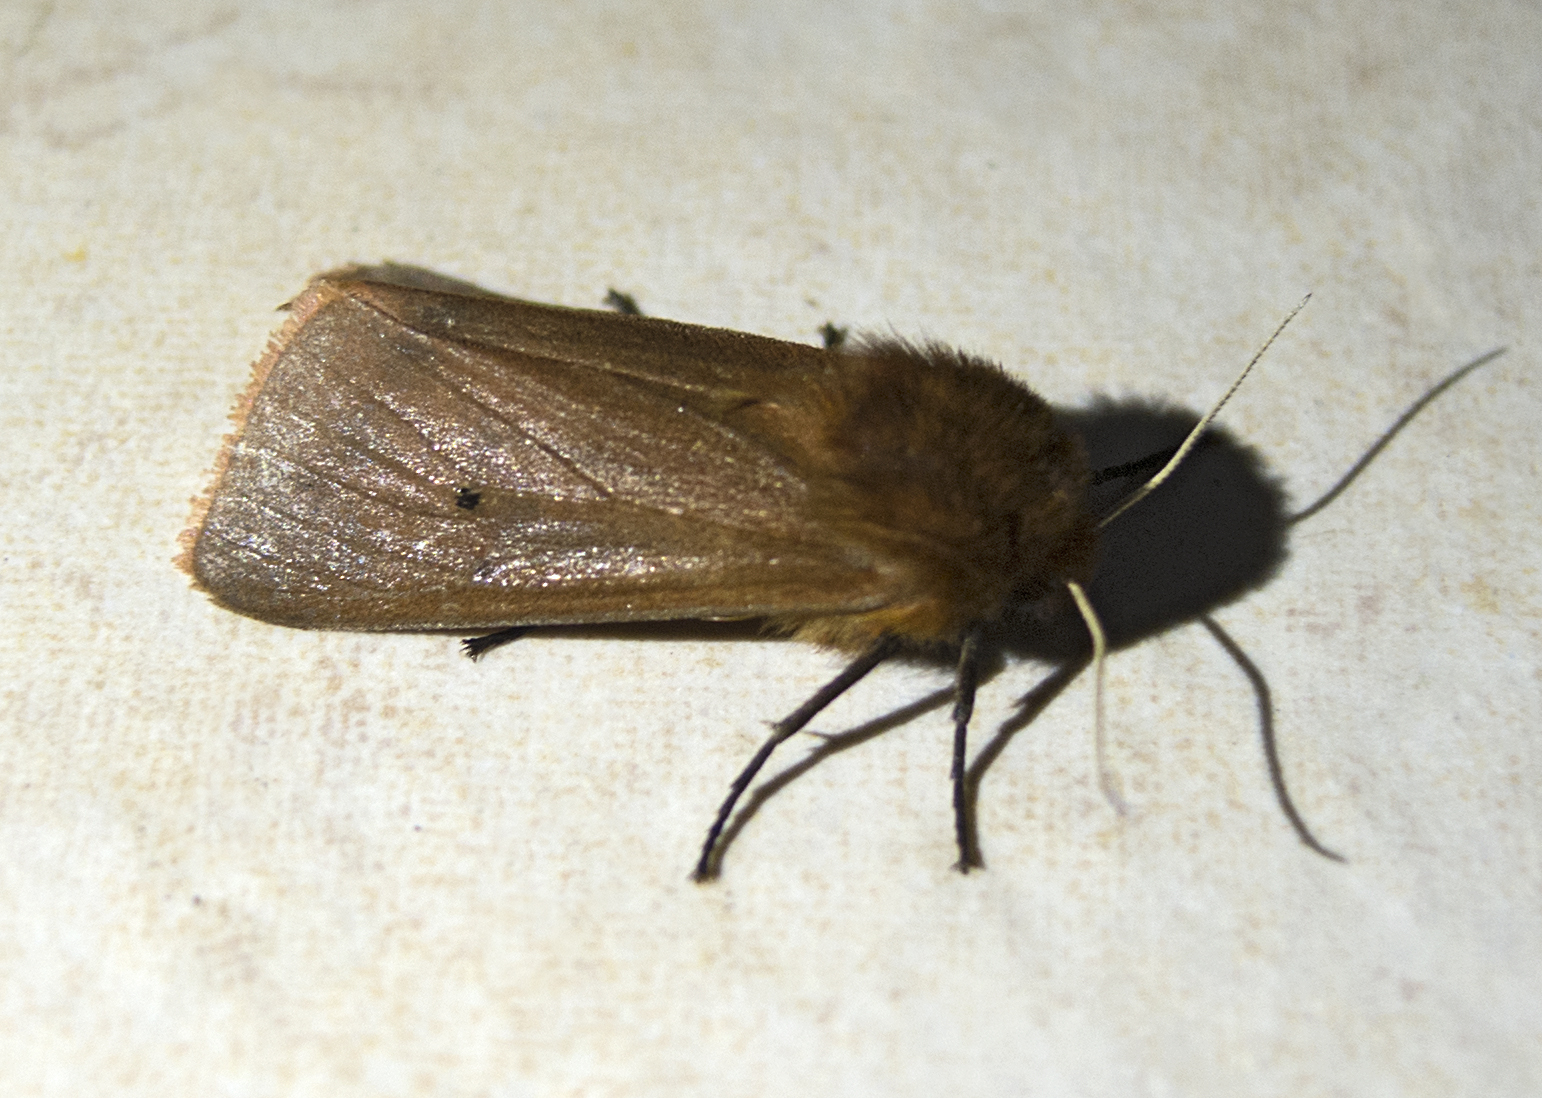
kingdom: Animalia
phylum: Arthropoda
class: Insecta
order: Lepidoptera
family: Erebidae
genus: Phragmatobia
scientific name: Phragmatobia fuliginosa
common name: Ruby tiger
